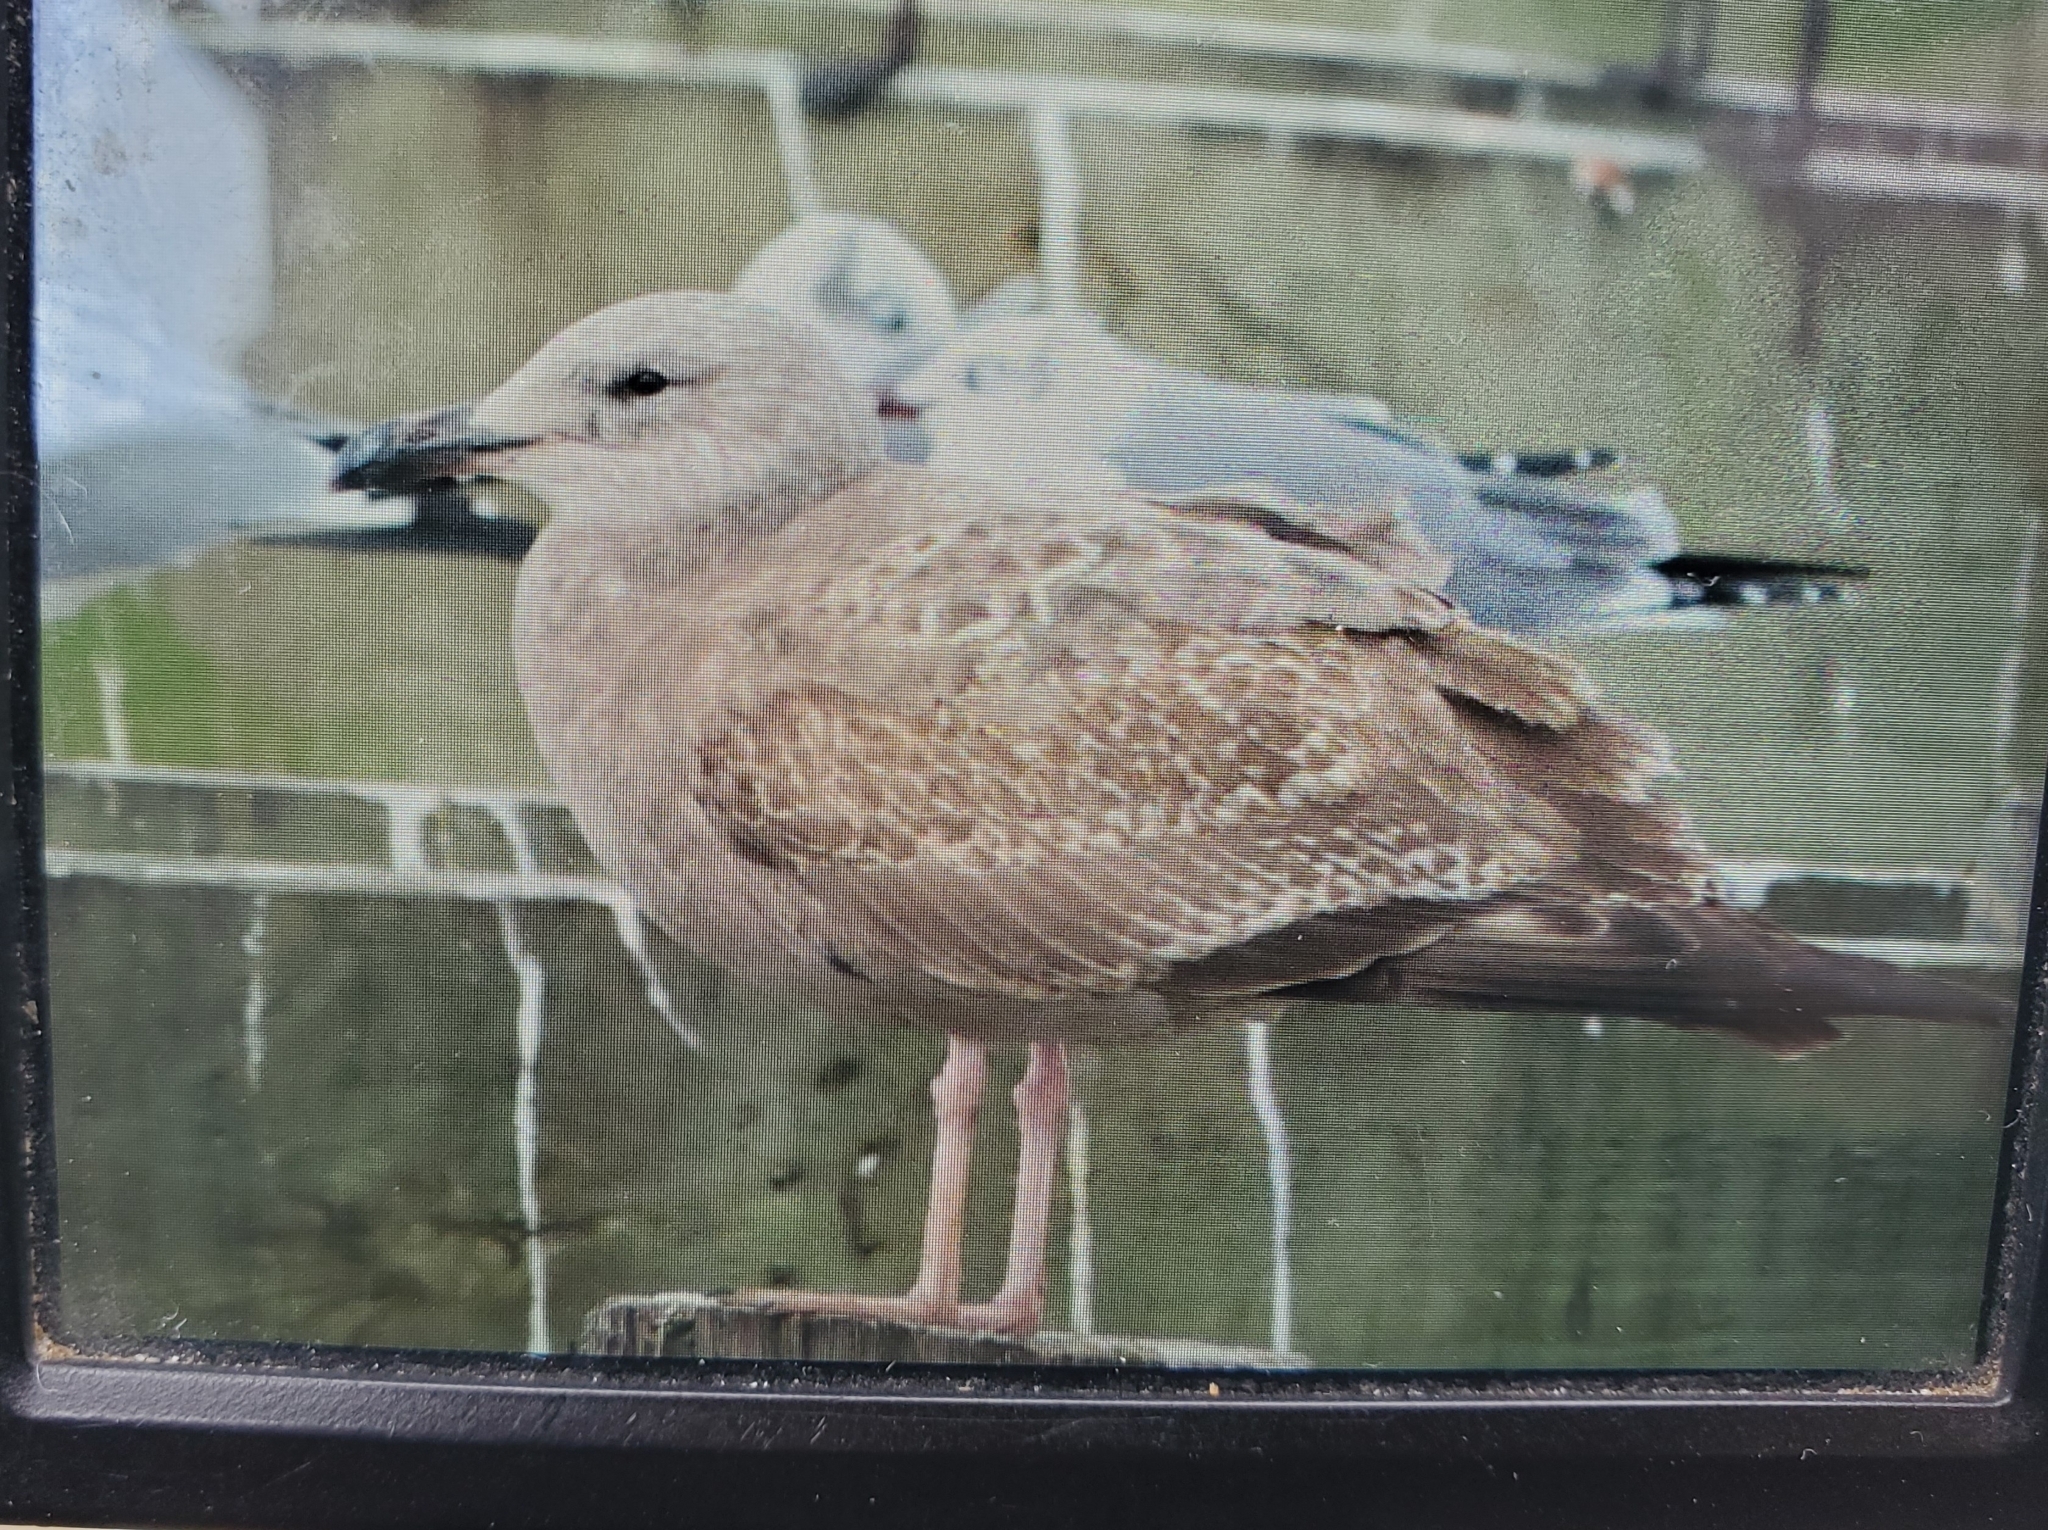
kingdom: Animalia
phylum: Chordata
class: Aves
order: Charadriiformes
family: Laridae
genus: Larus
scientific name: Larus argentatus
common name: Herring gull
